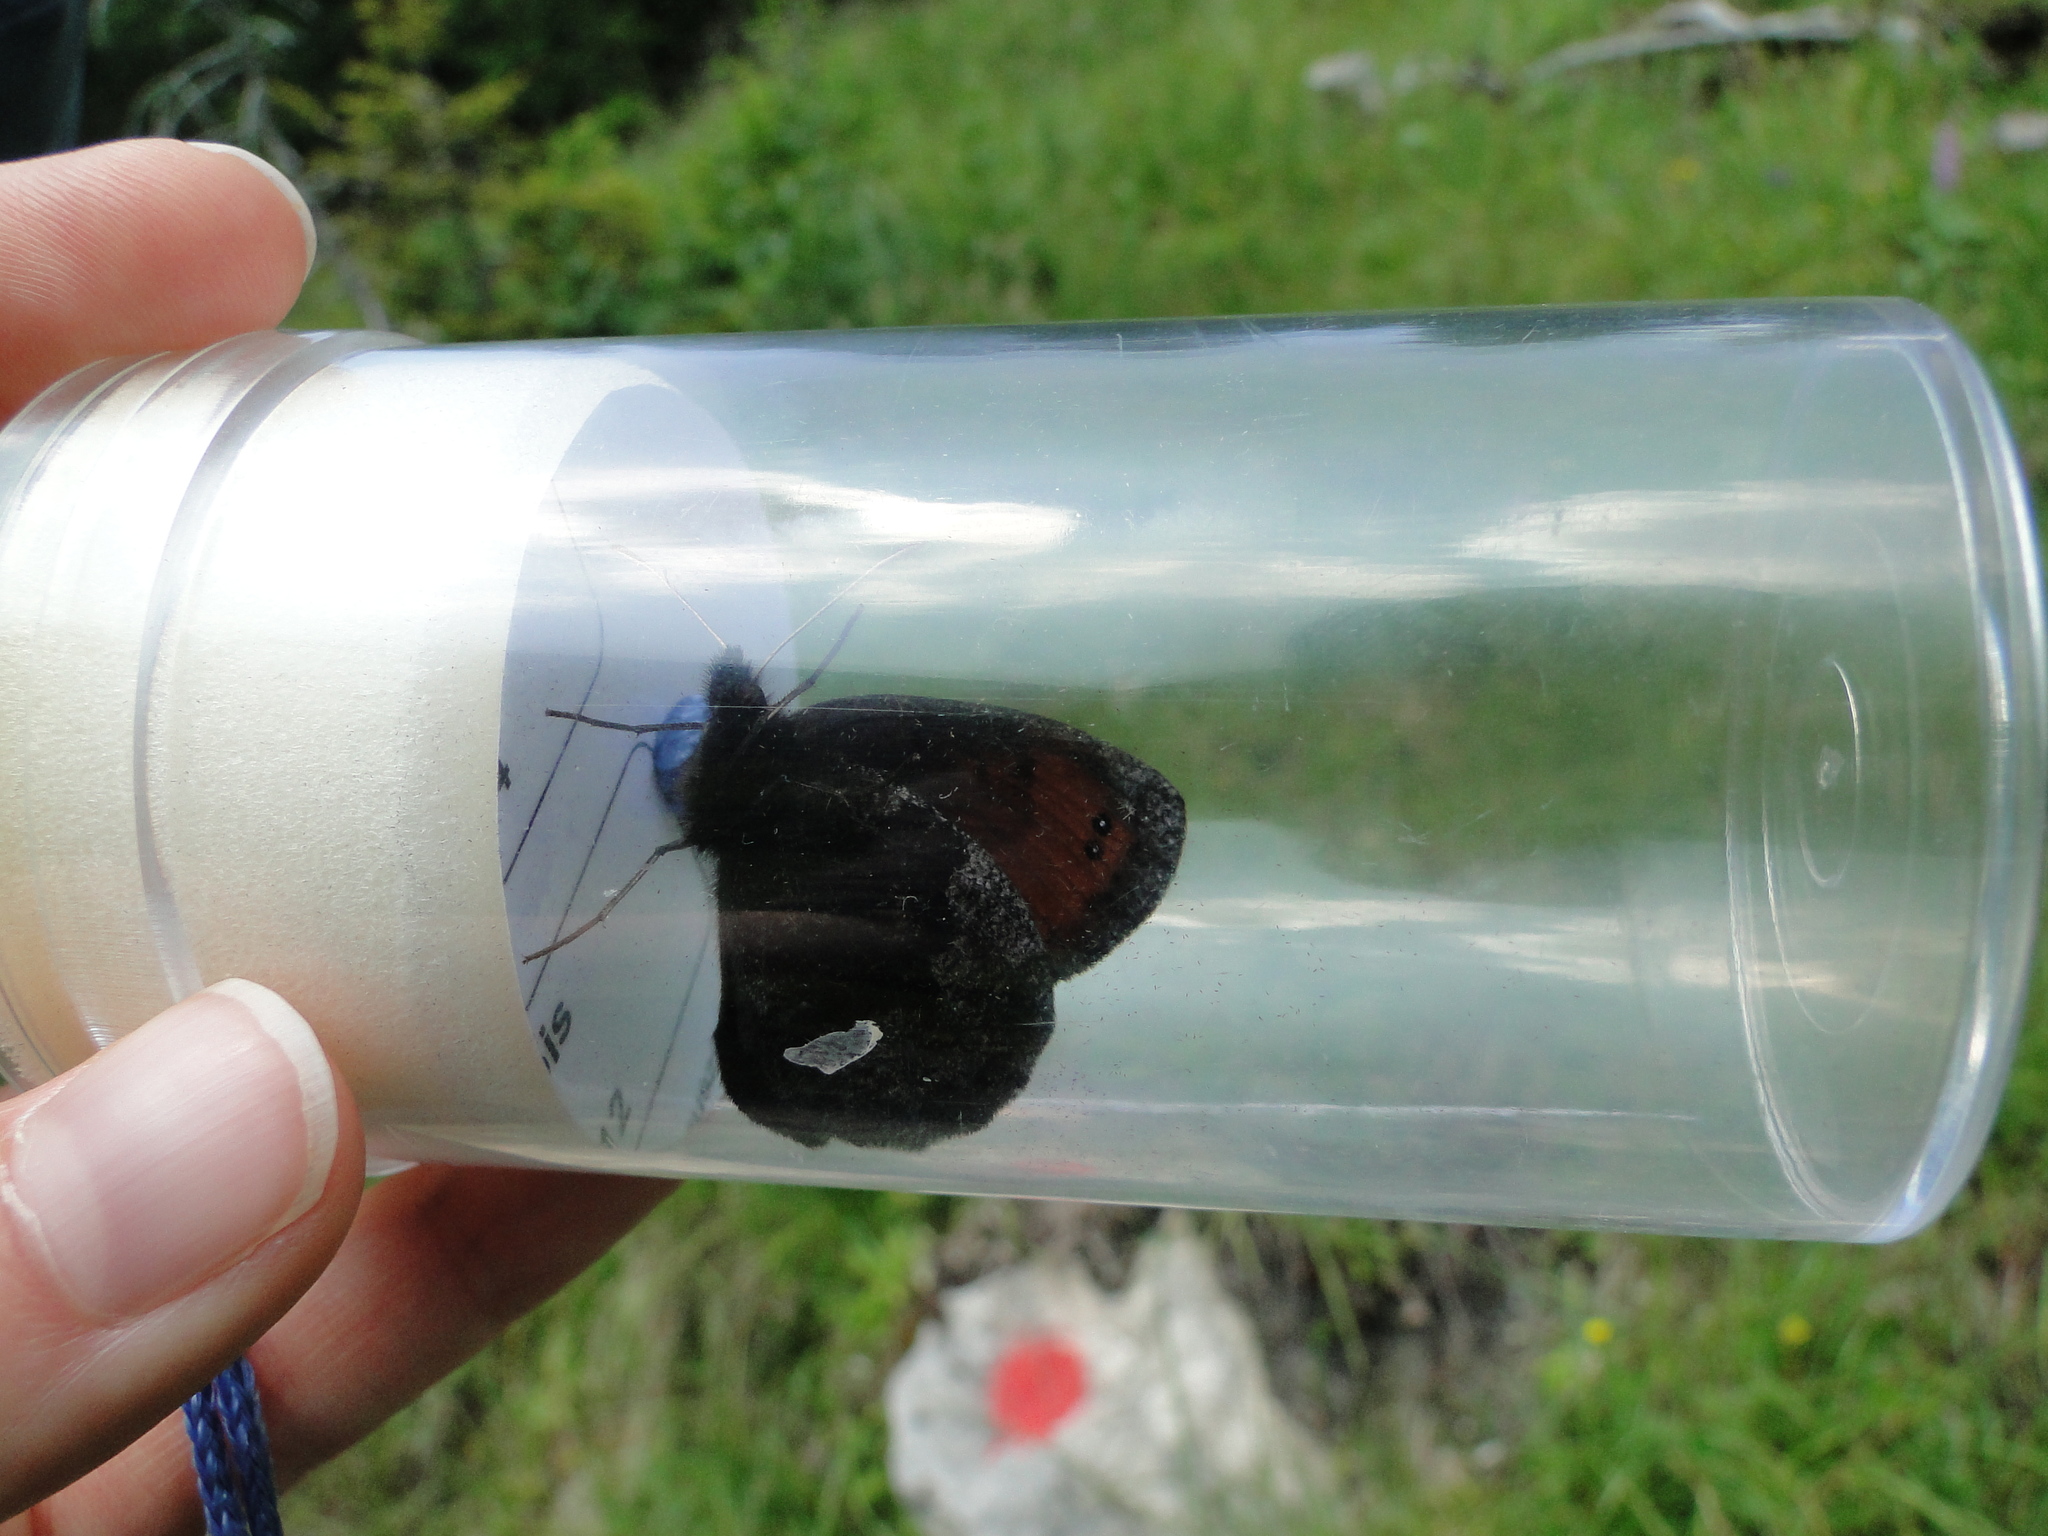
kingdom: Animalia
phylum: Arthropoda
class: Insecta
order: Lepidoptera
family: Nymphalidae
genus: Erebia
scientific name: Erebia pronoe
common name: Water ringlet
